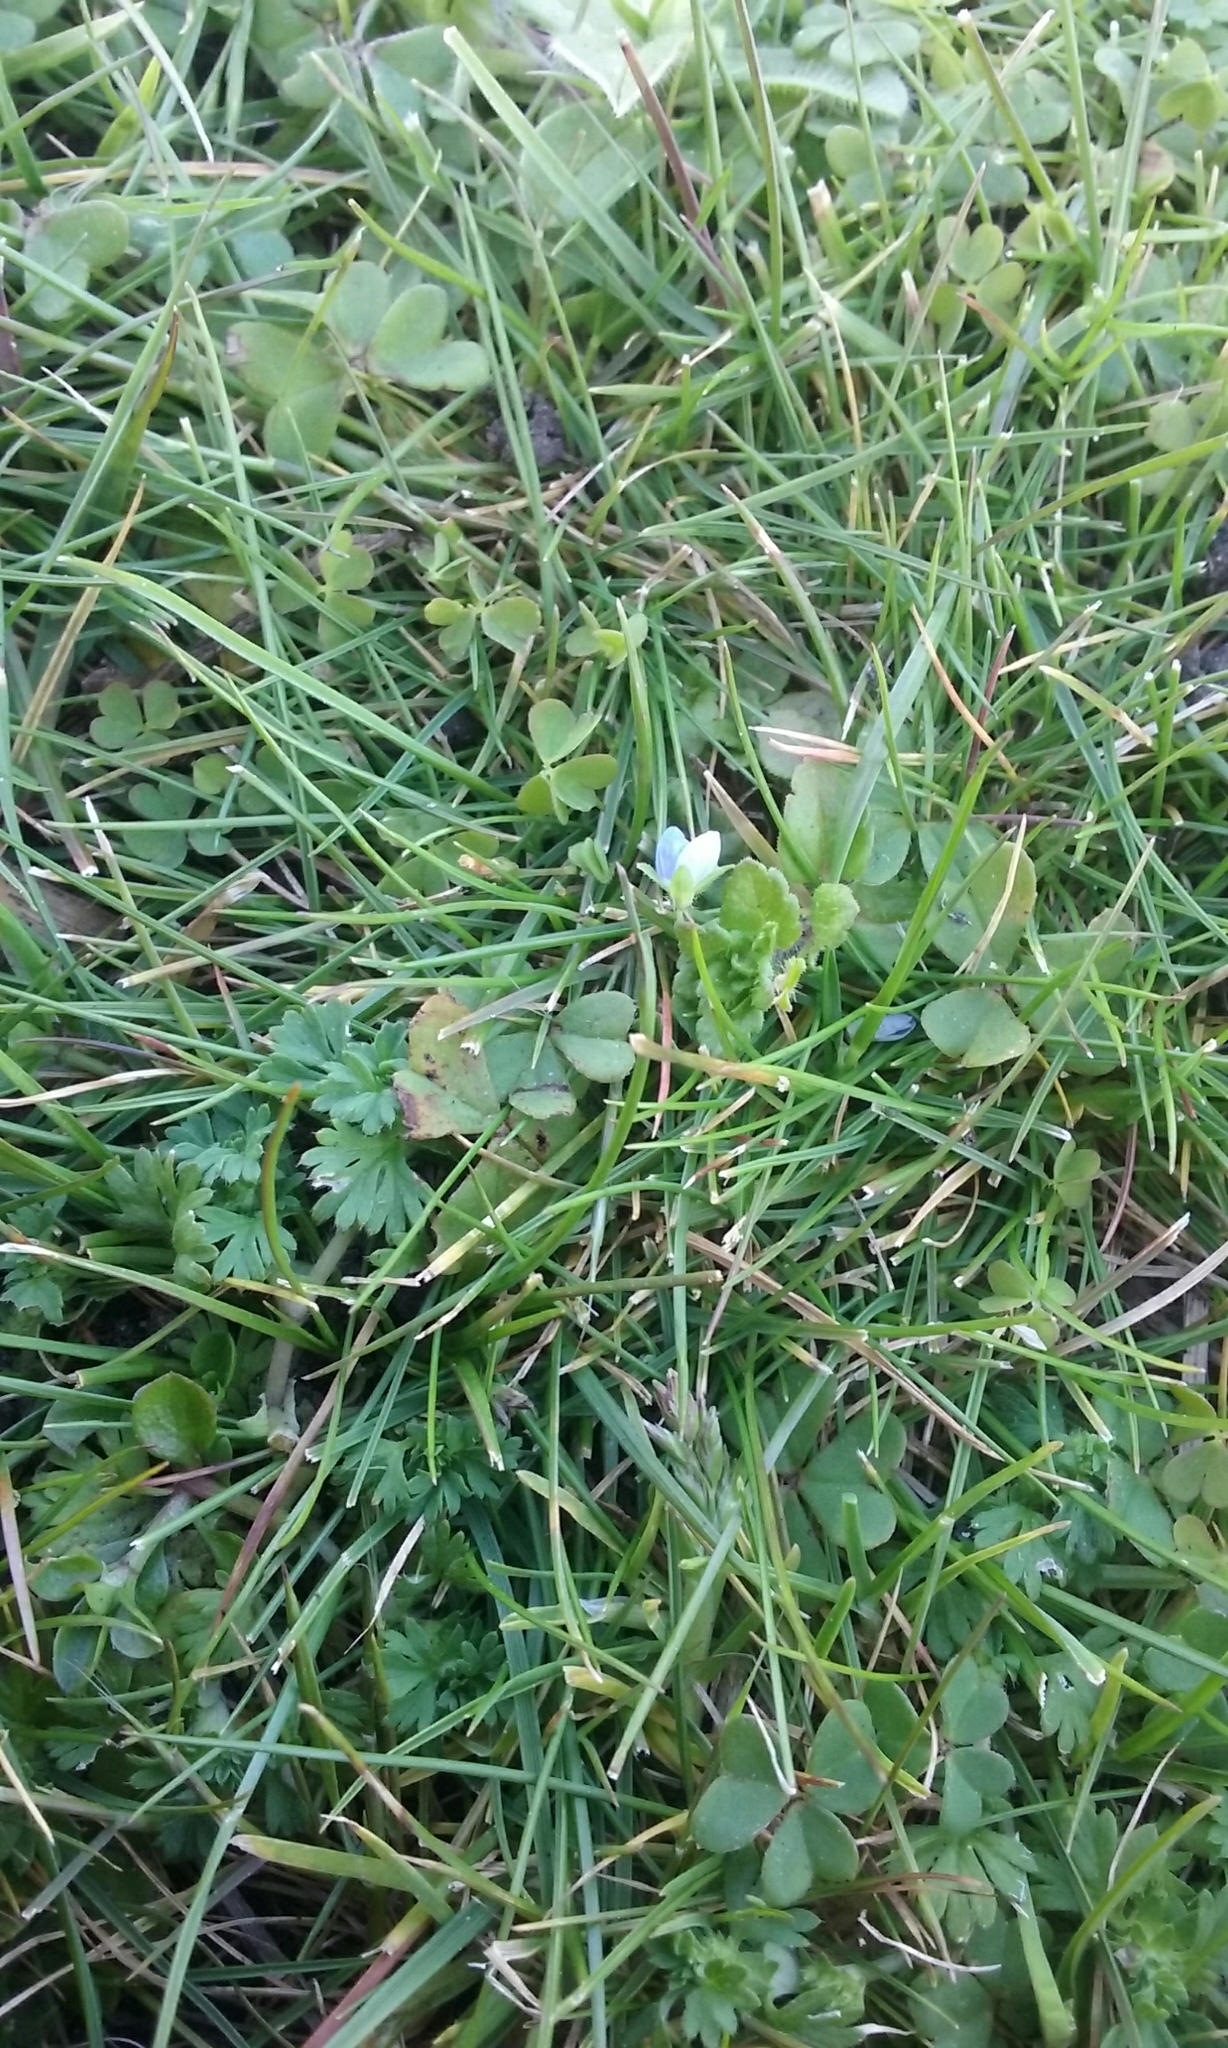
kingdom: Plantae
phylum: Tracheophyta
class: Liliopsida
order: Poales
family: Poaceae
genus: Festuca
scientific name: Festuca rubra
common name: Red fescue
